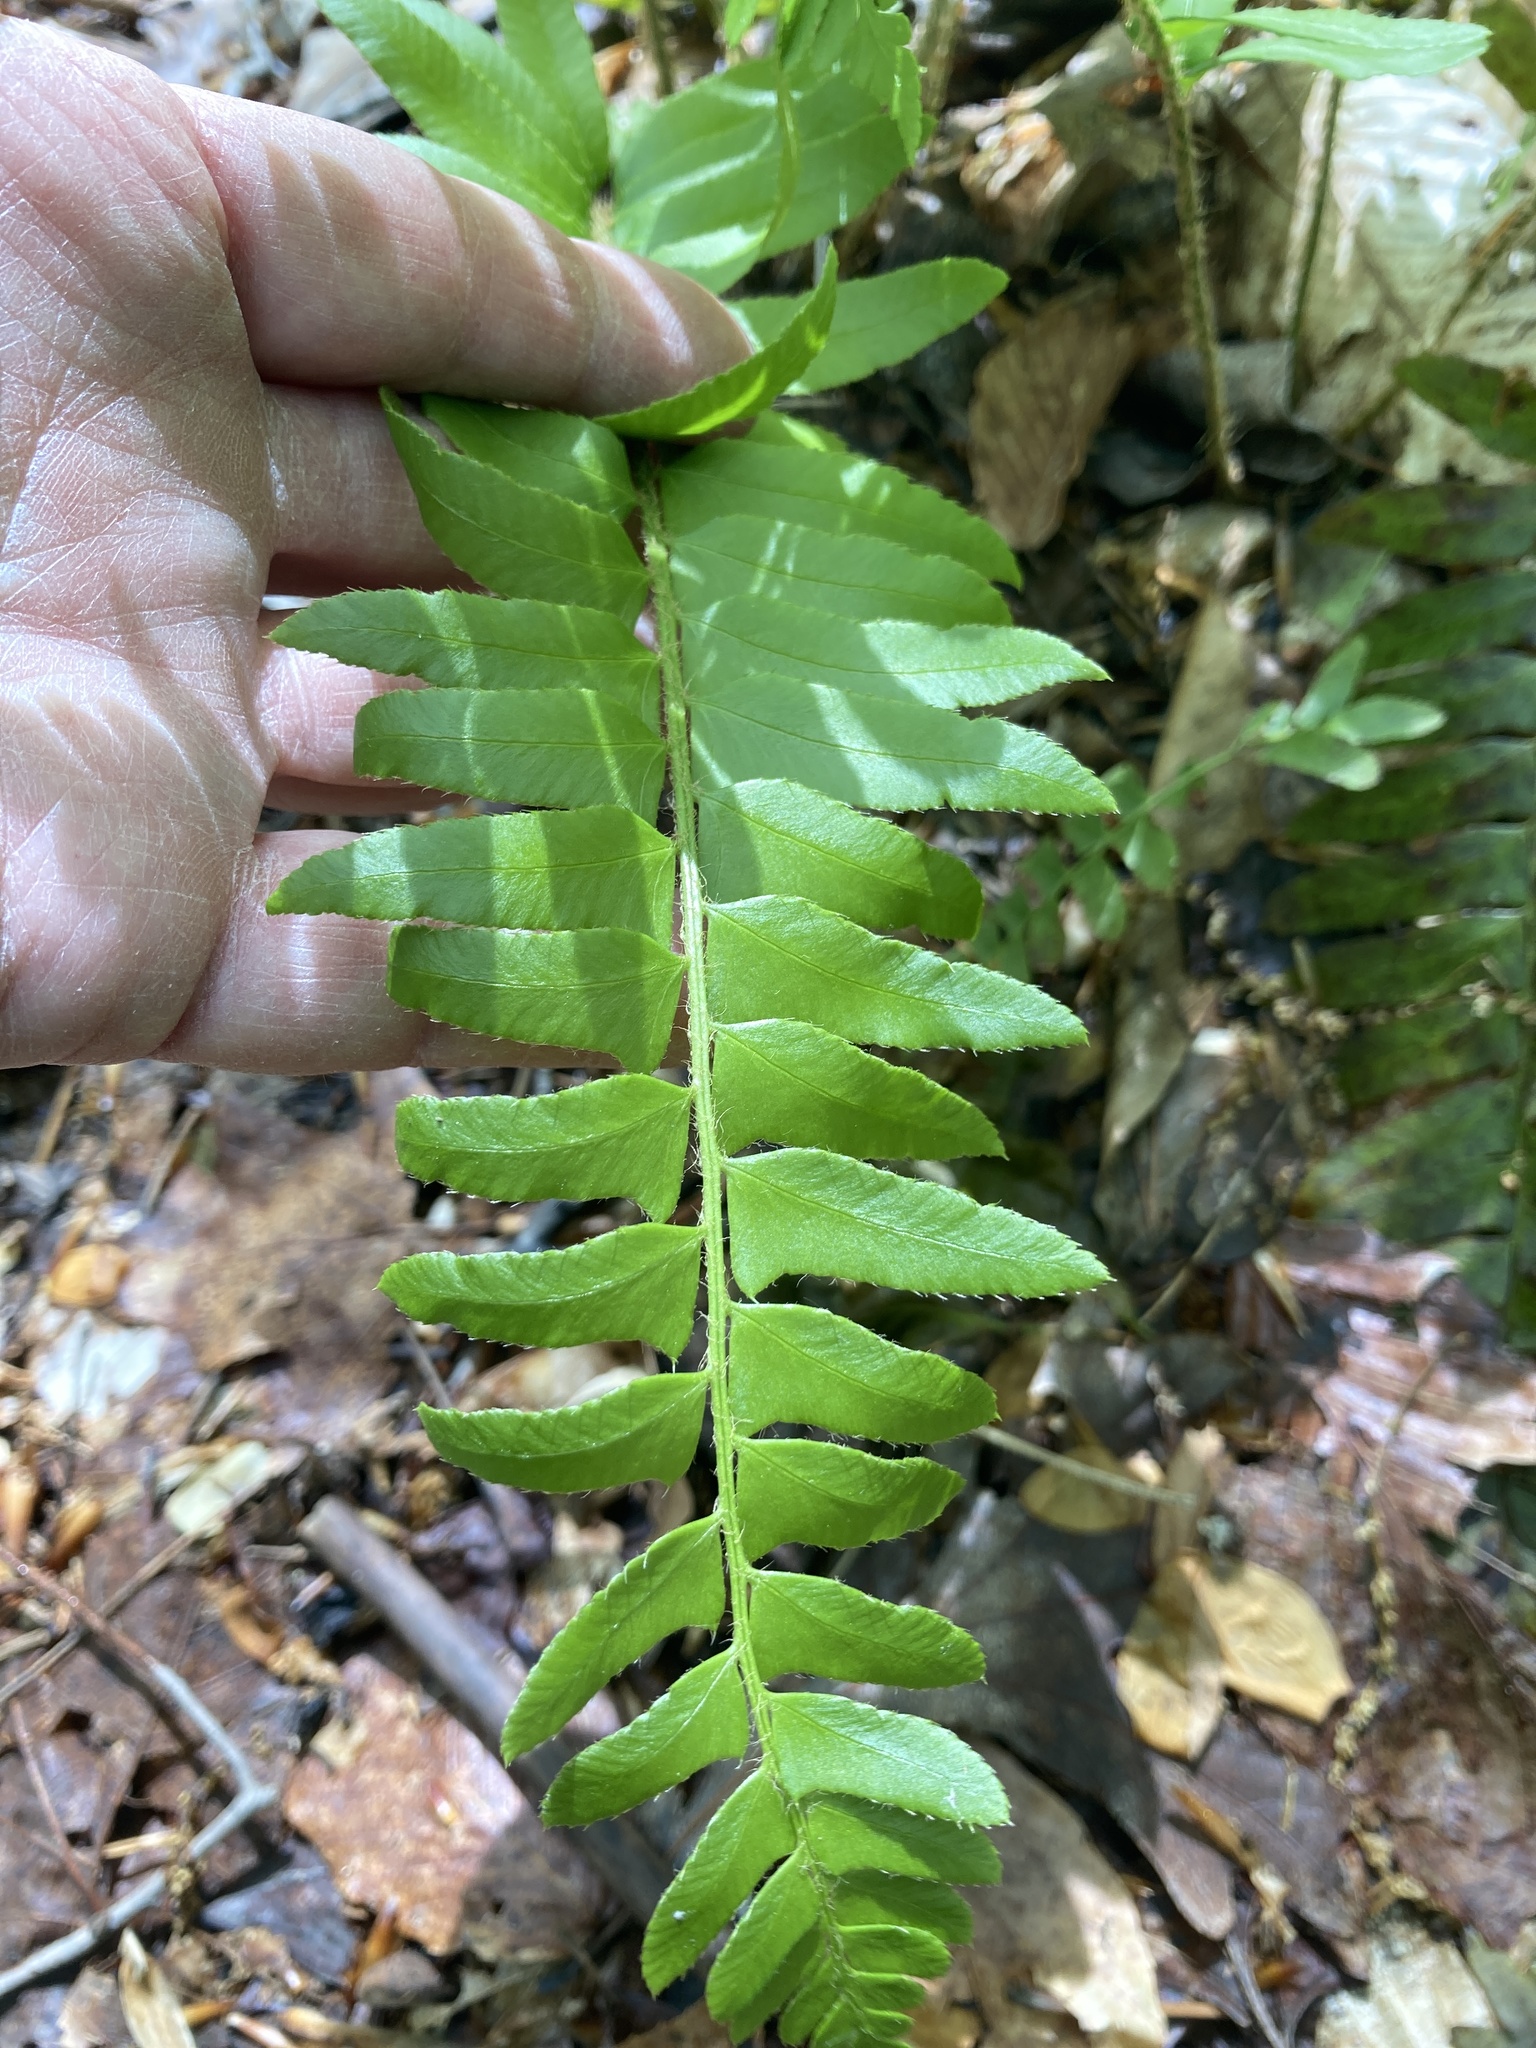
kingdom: Plantae
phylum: Tracheophyta
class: Polypodiopsida
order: Polypodiales
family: Dryopteridaceae
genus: Polystichum
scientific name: Polystichum acrostichoides
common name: Christmas fern
